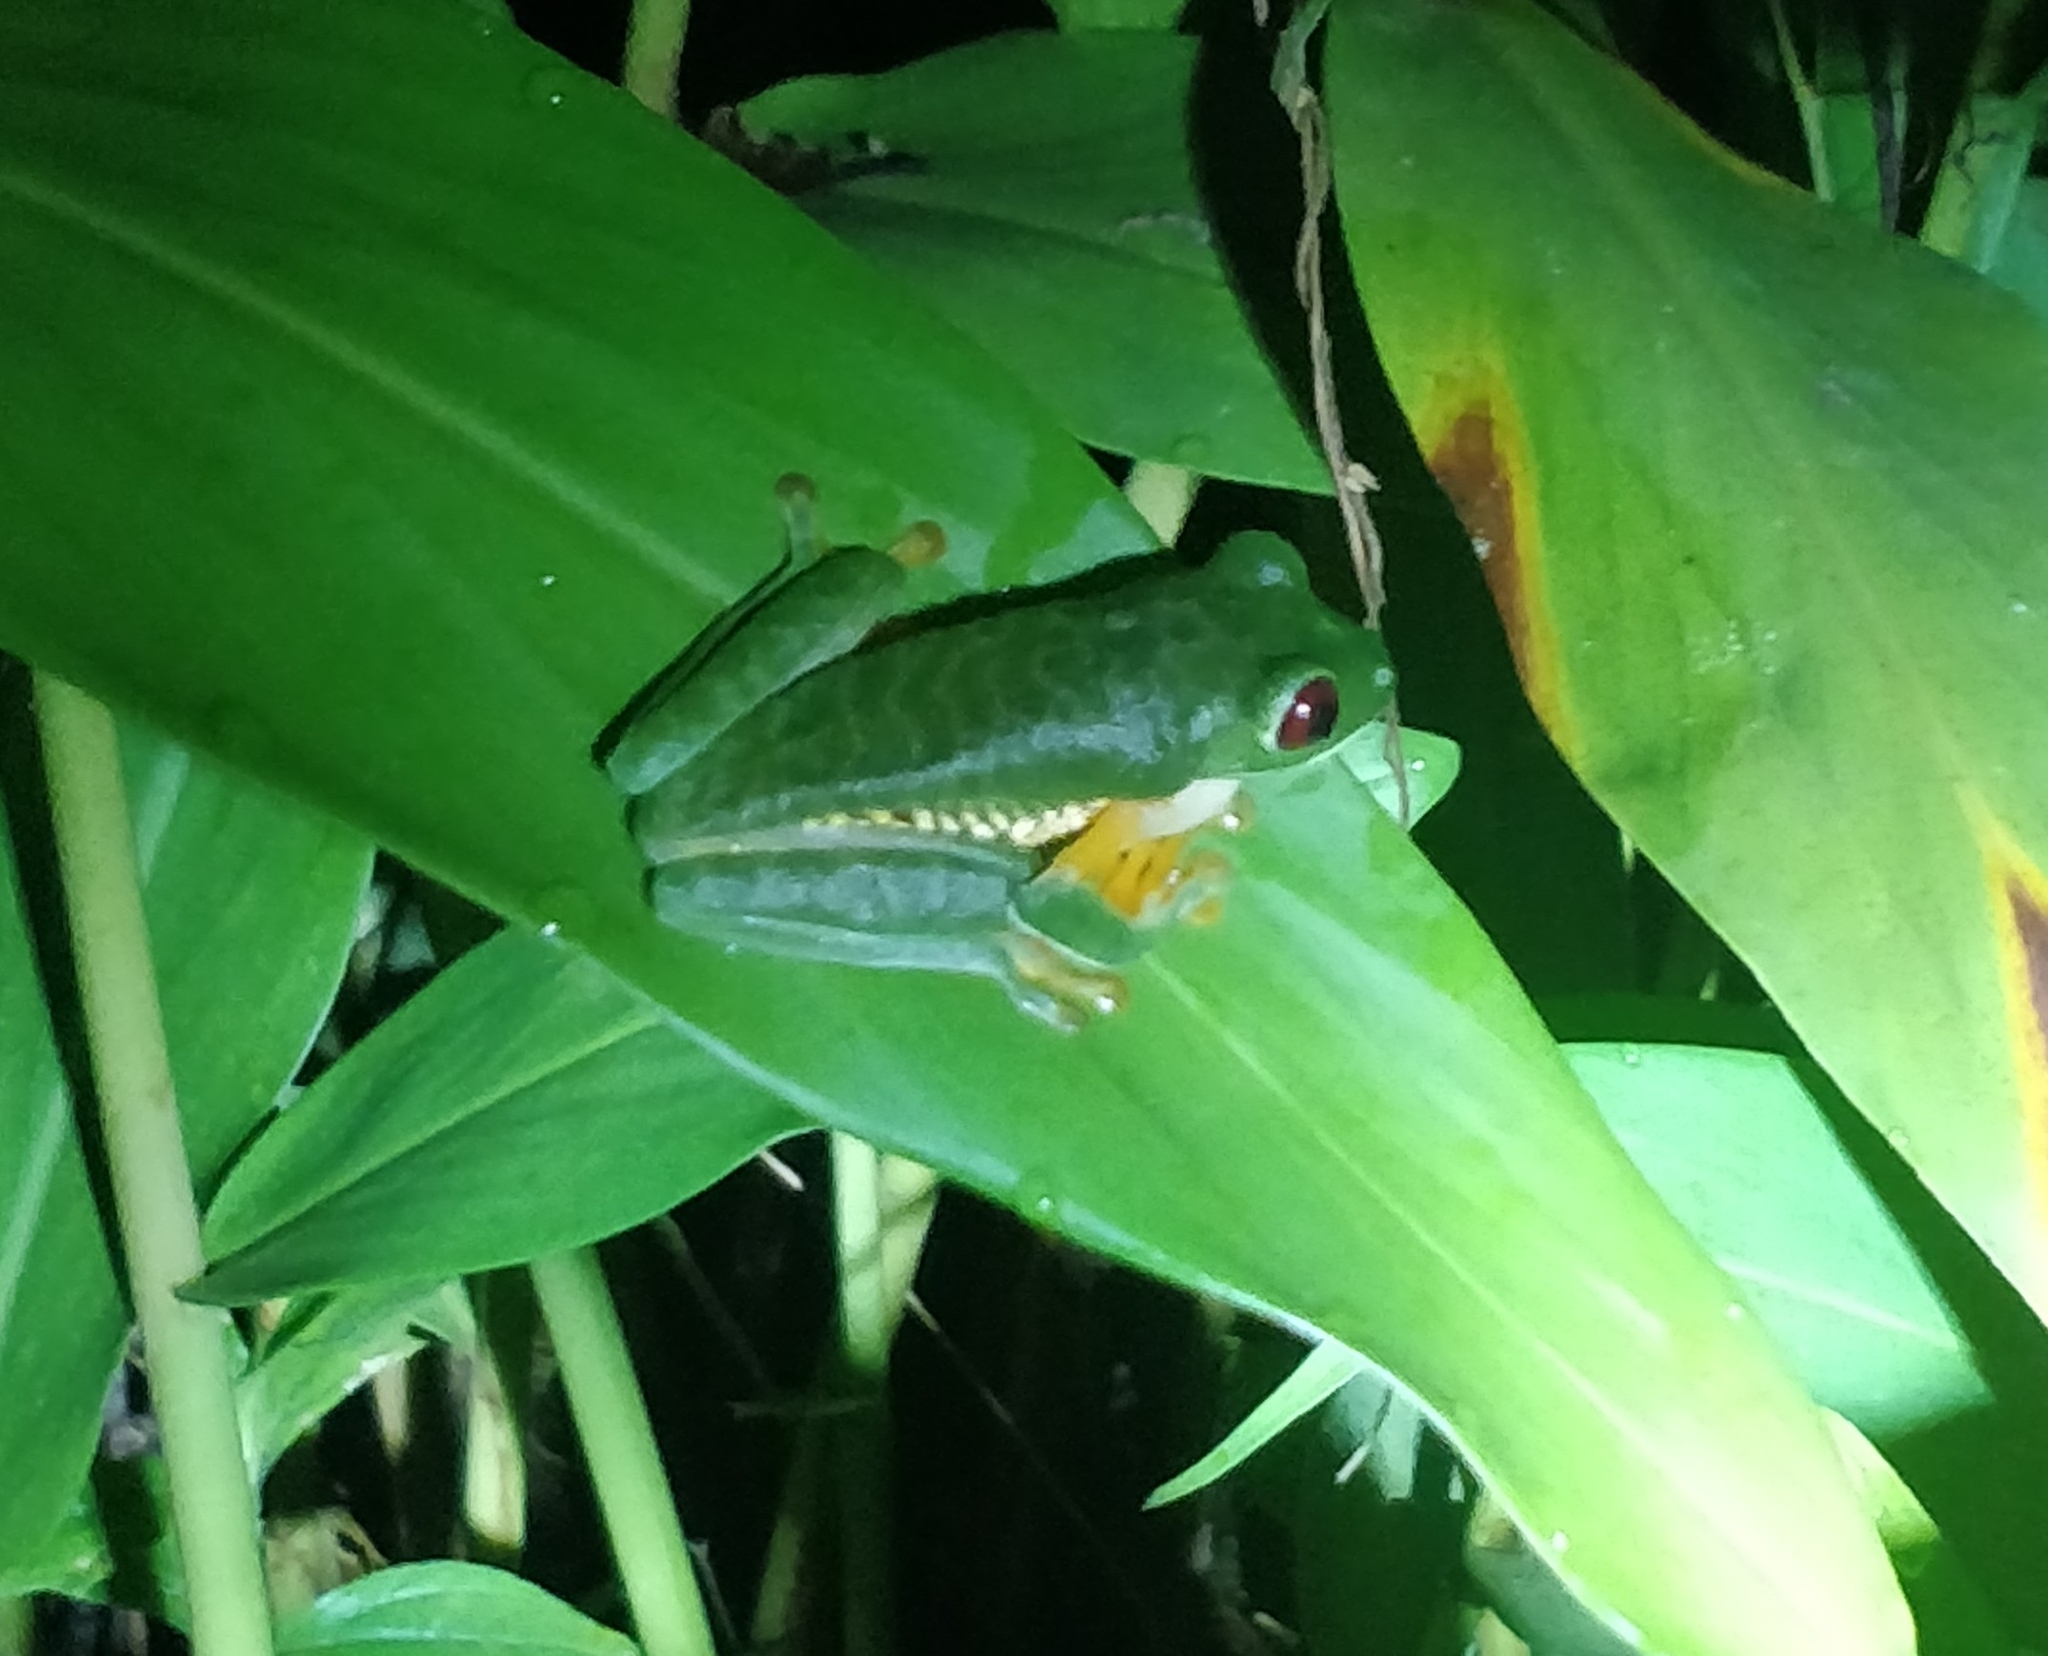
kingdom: Animalia
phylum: Chordata
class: Amphibia
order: Anura
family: Phyllomedusidae
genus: Agalychnis
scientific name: Agalychnis callidryas
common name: Red-eyed treefrog
